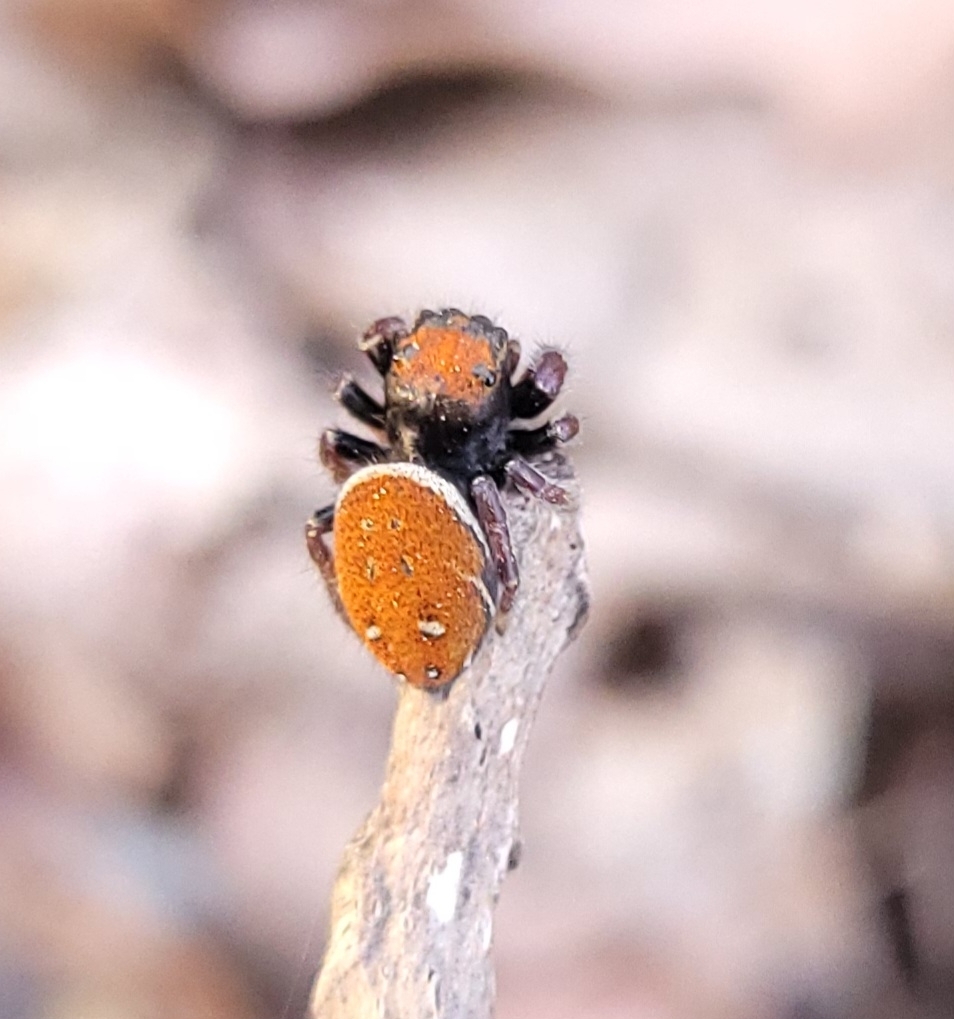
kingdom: Animalia
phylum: Arthropoda
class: Arachnida
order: Araneae
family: Salticidae
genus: Phidippus
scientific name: Phidippus whitmani
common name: Whitman's jumping spider
